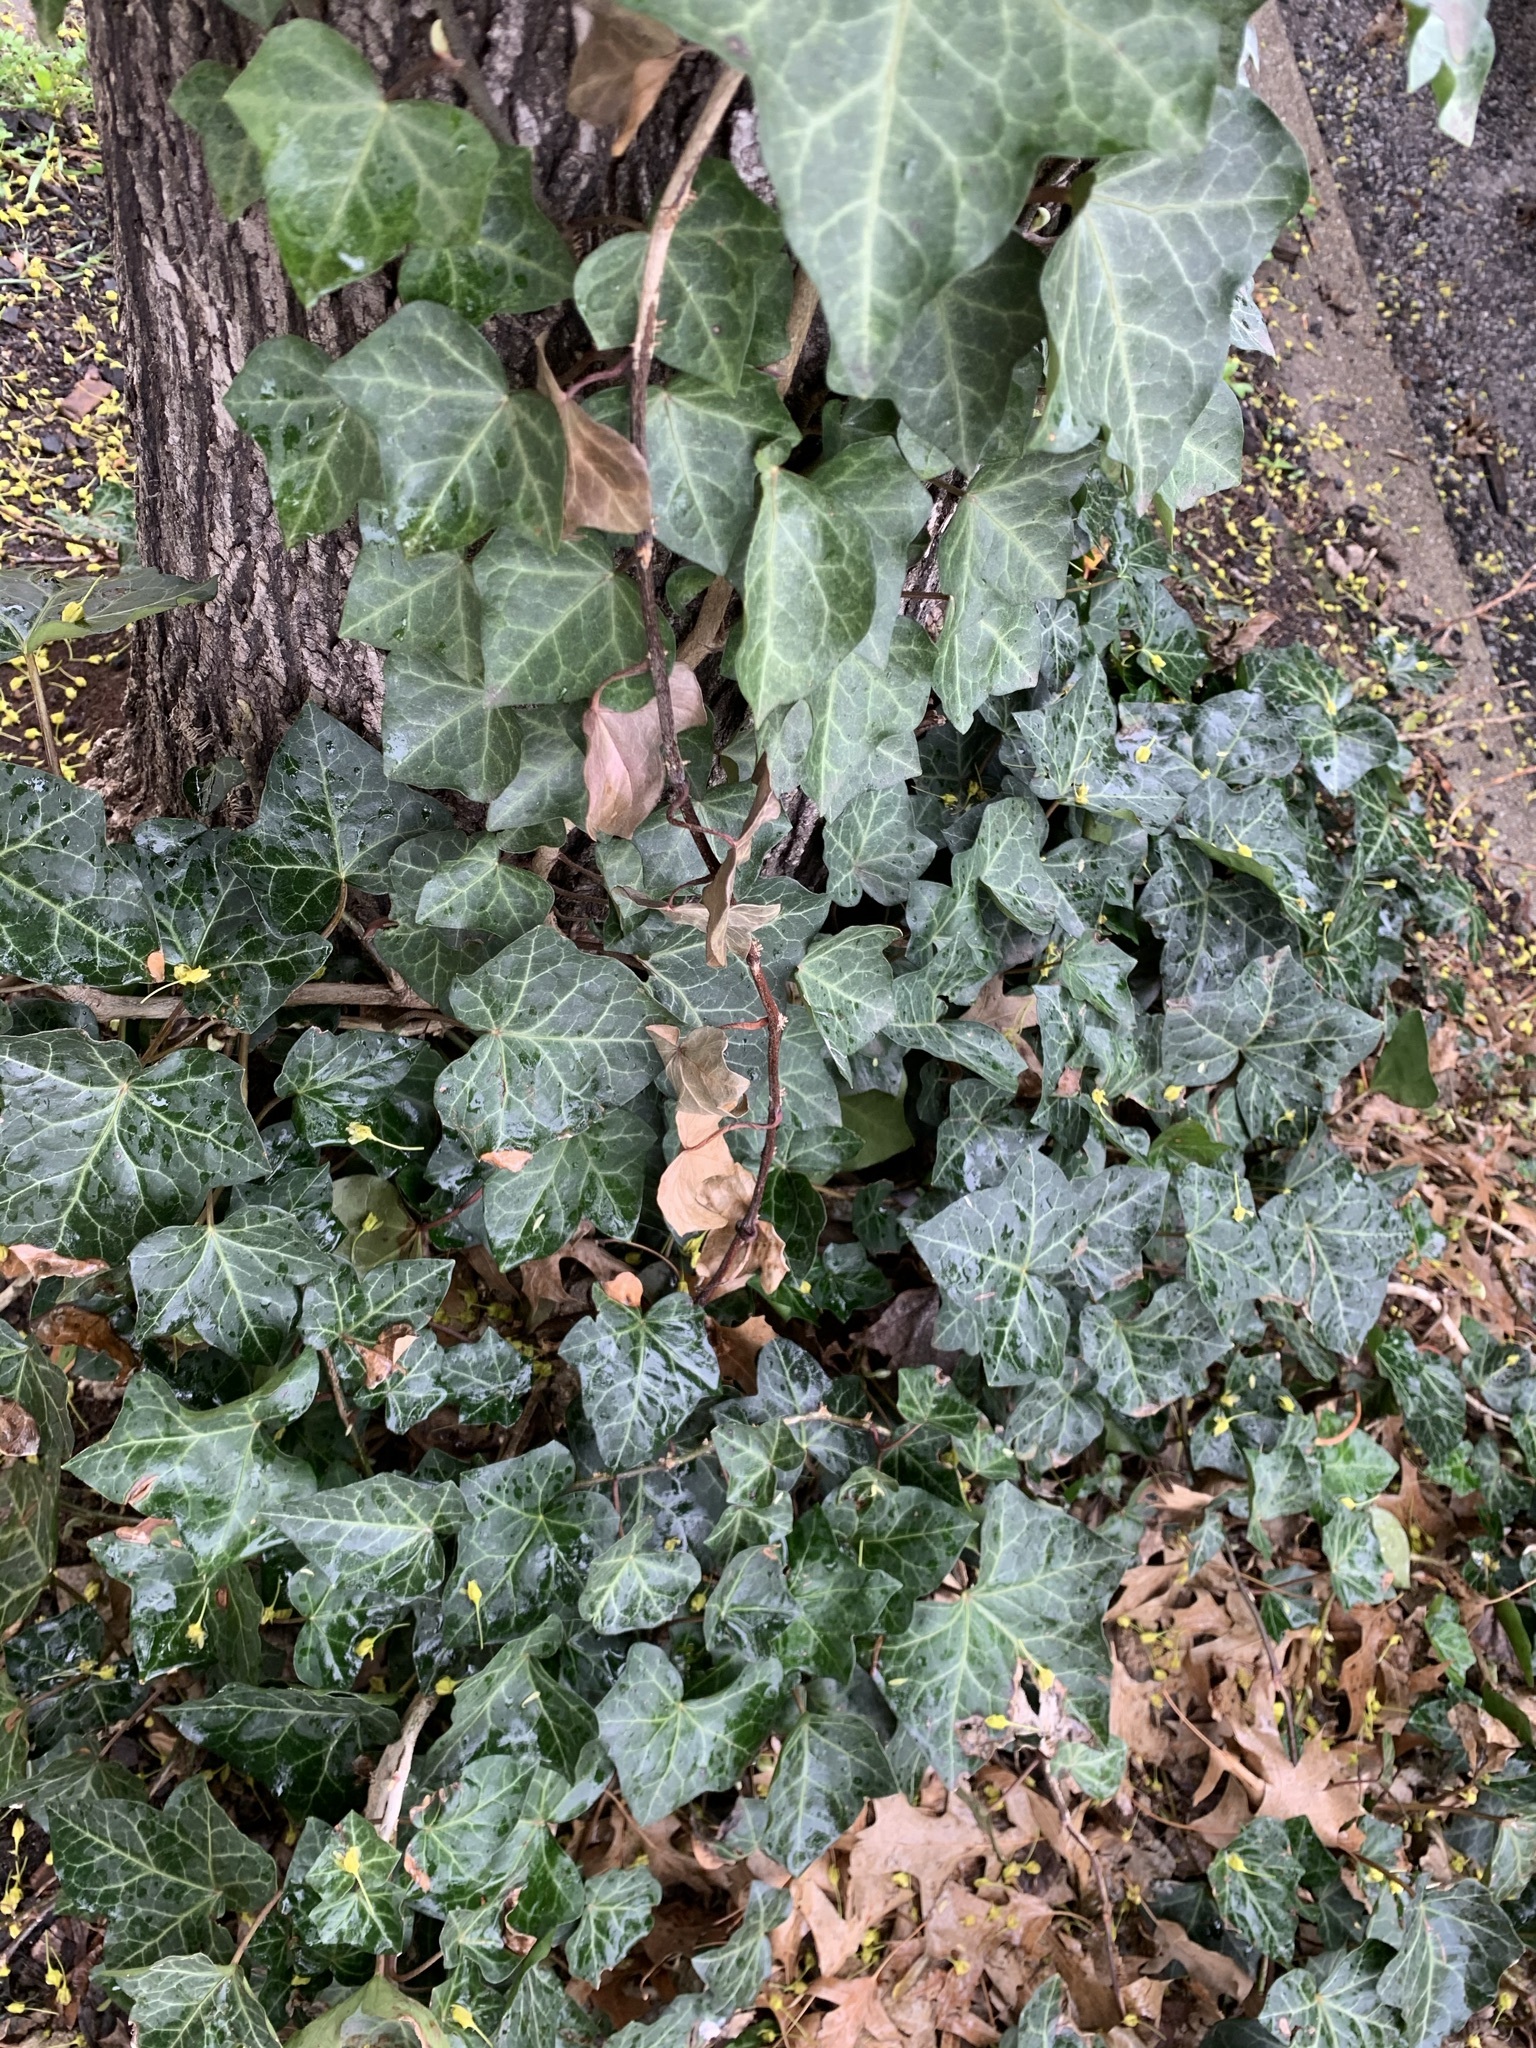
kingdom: Plantae
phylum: Tracheophyta
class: Magnoliopsida
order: Apiales
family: Araliaceae
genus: Hedera
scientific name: Hedera helix
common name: Ivy
